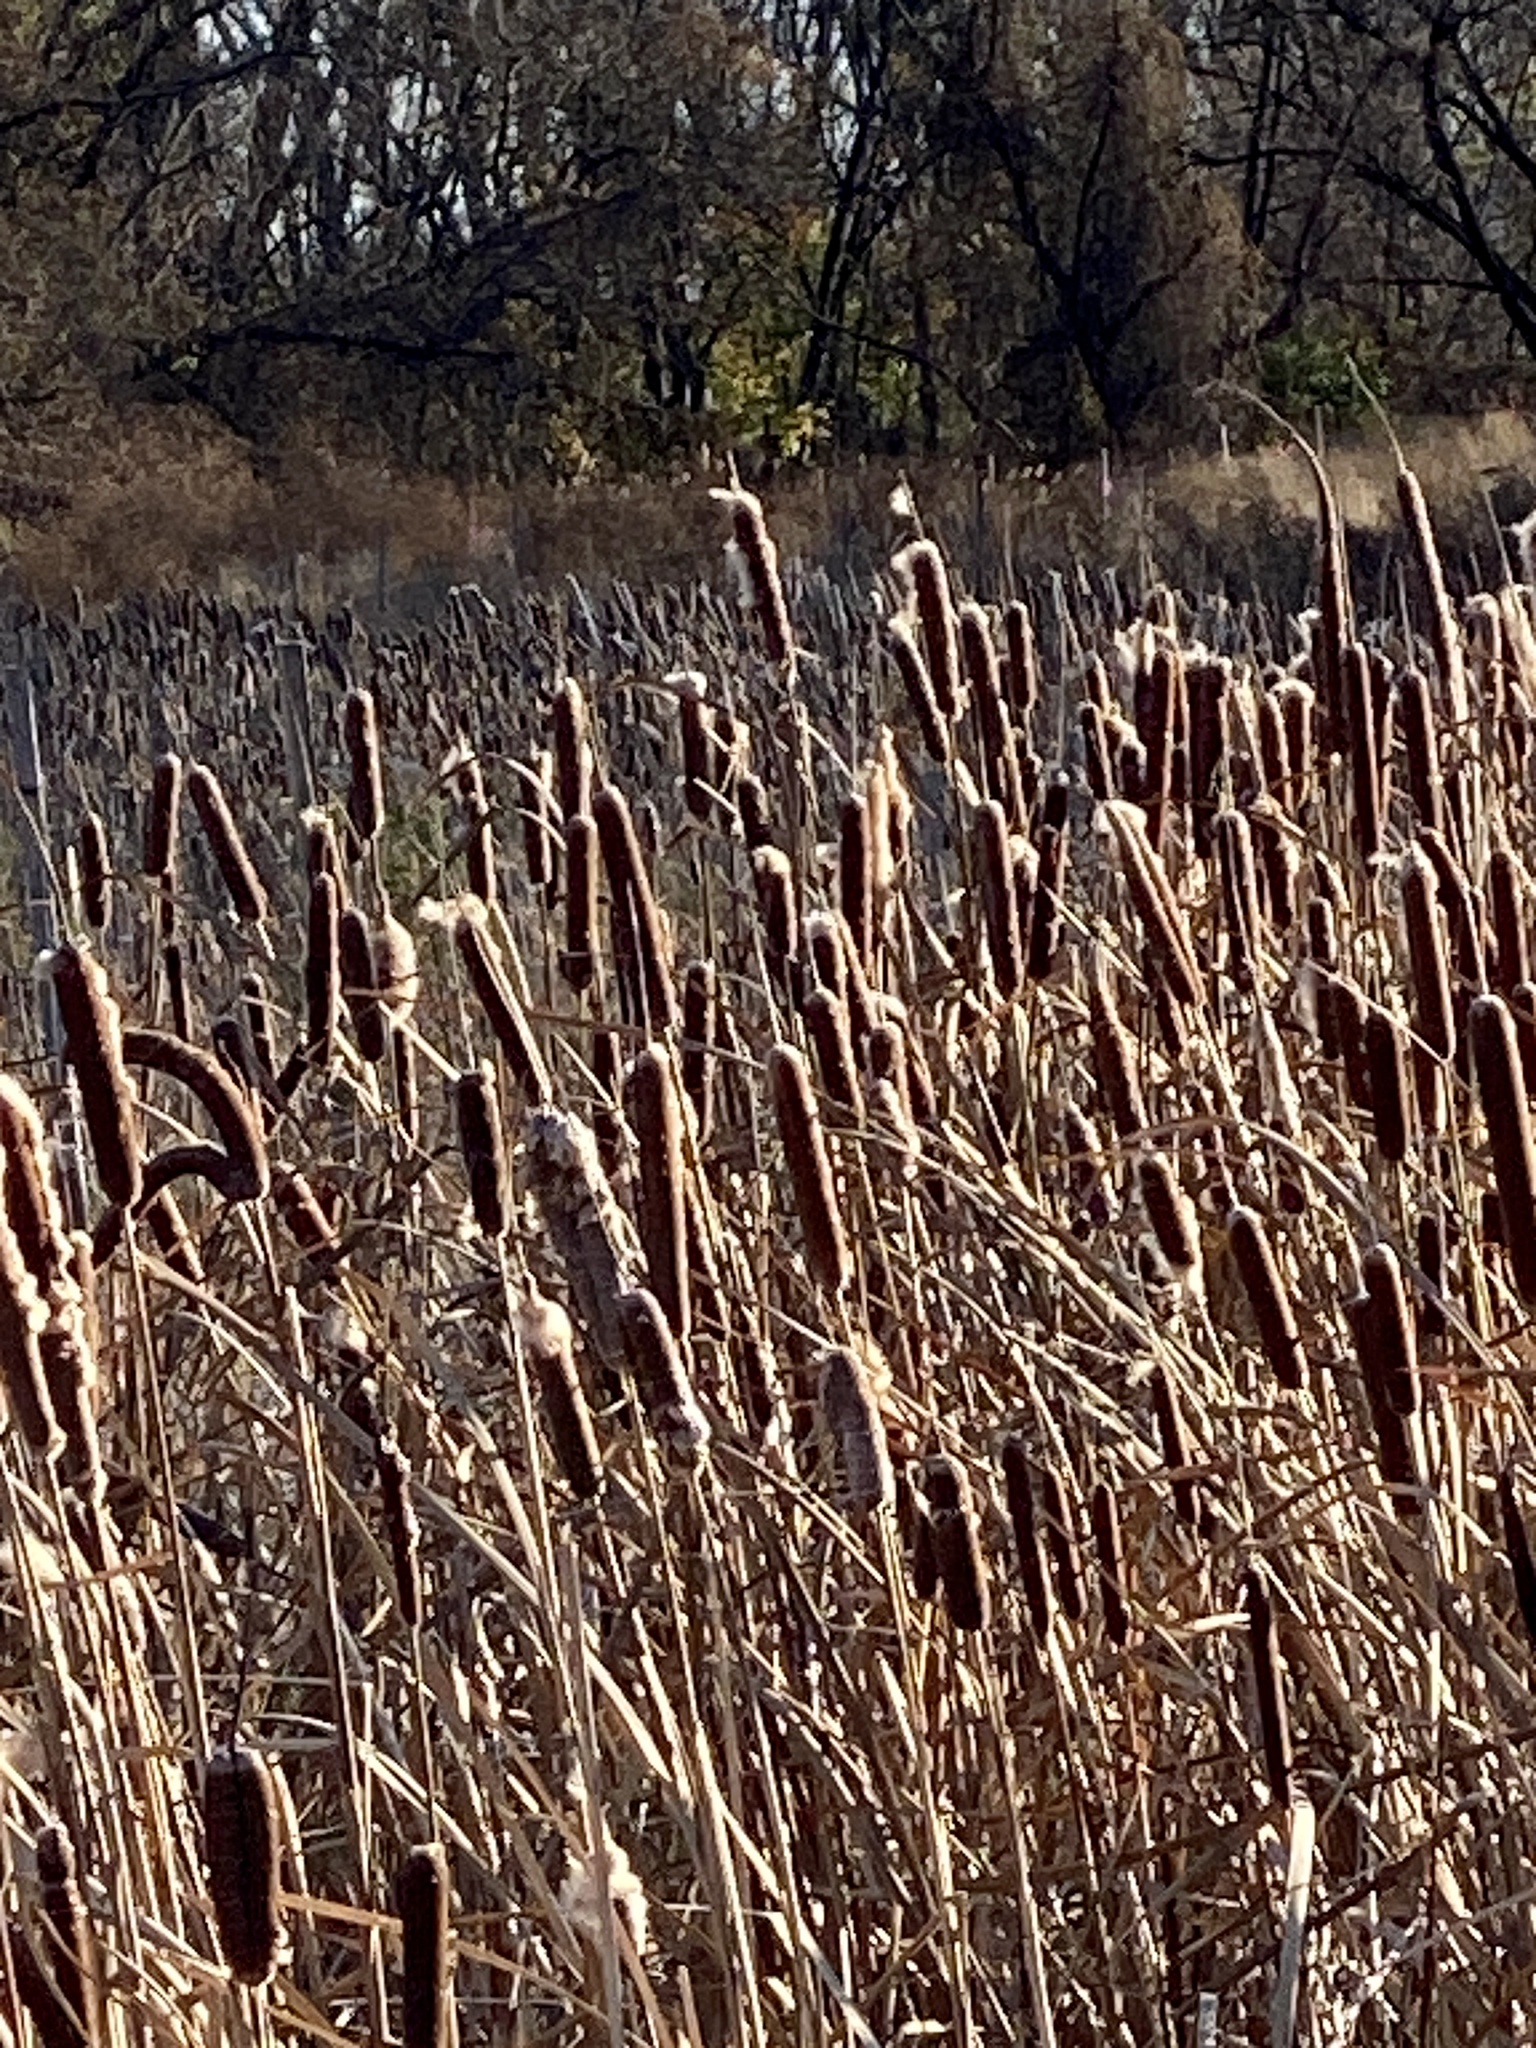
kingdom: Plantae
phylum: Tracheophyta
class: Liliopsida
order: Poales
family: Typhaceae
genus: Typha
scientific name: Typha
